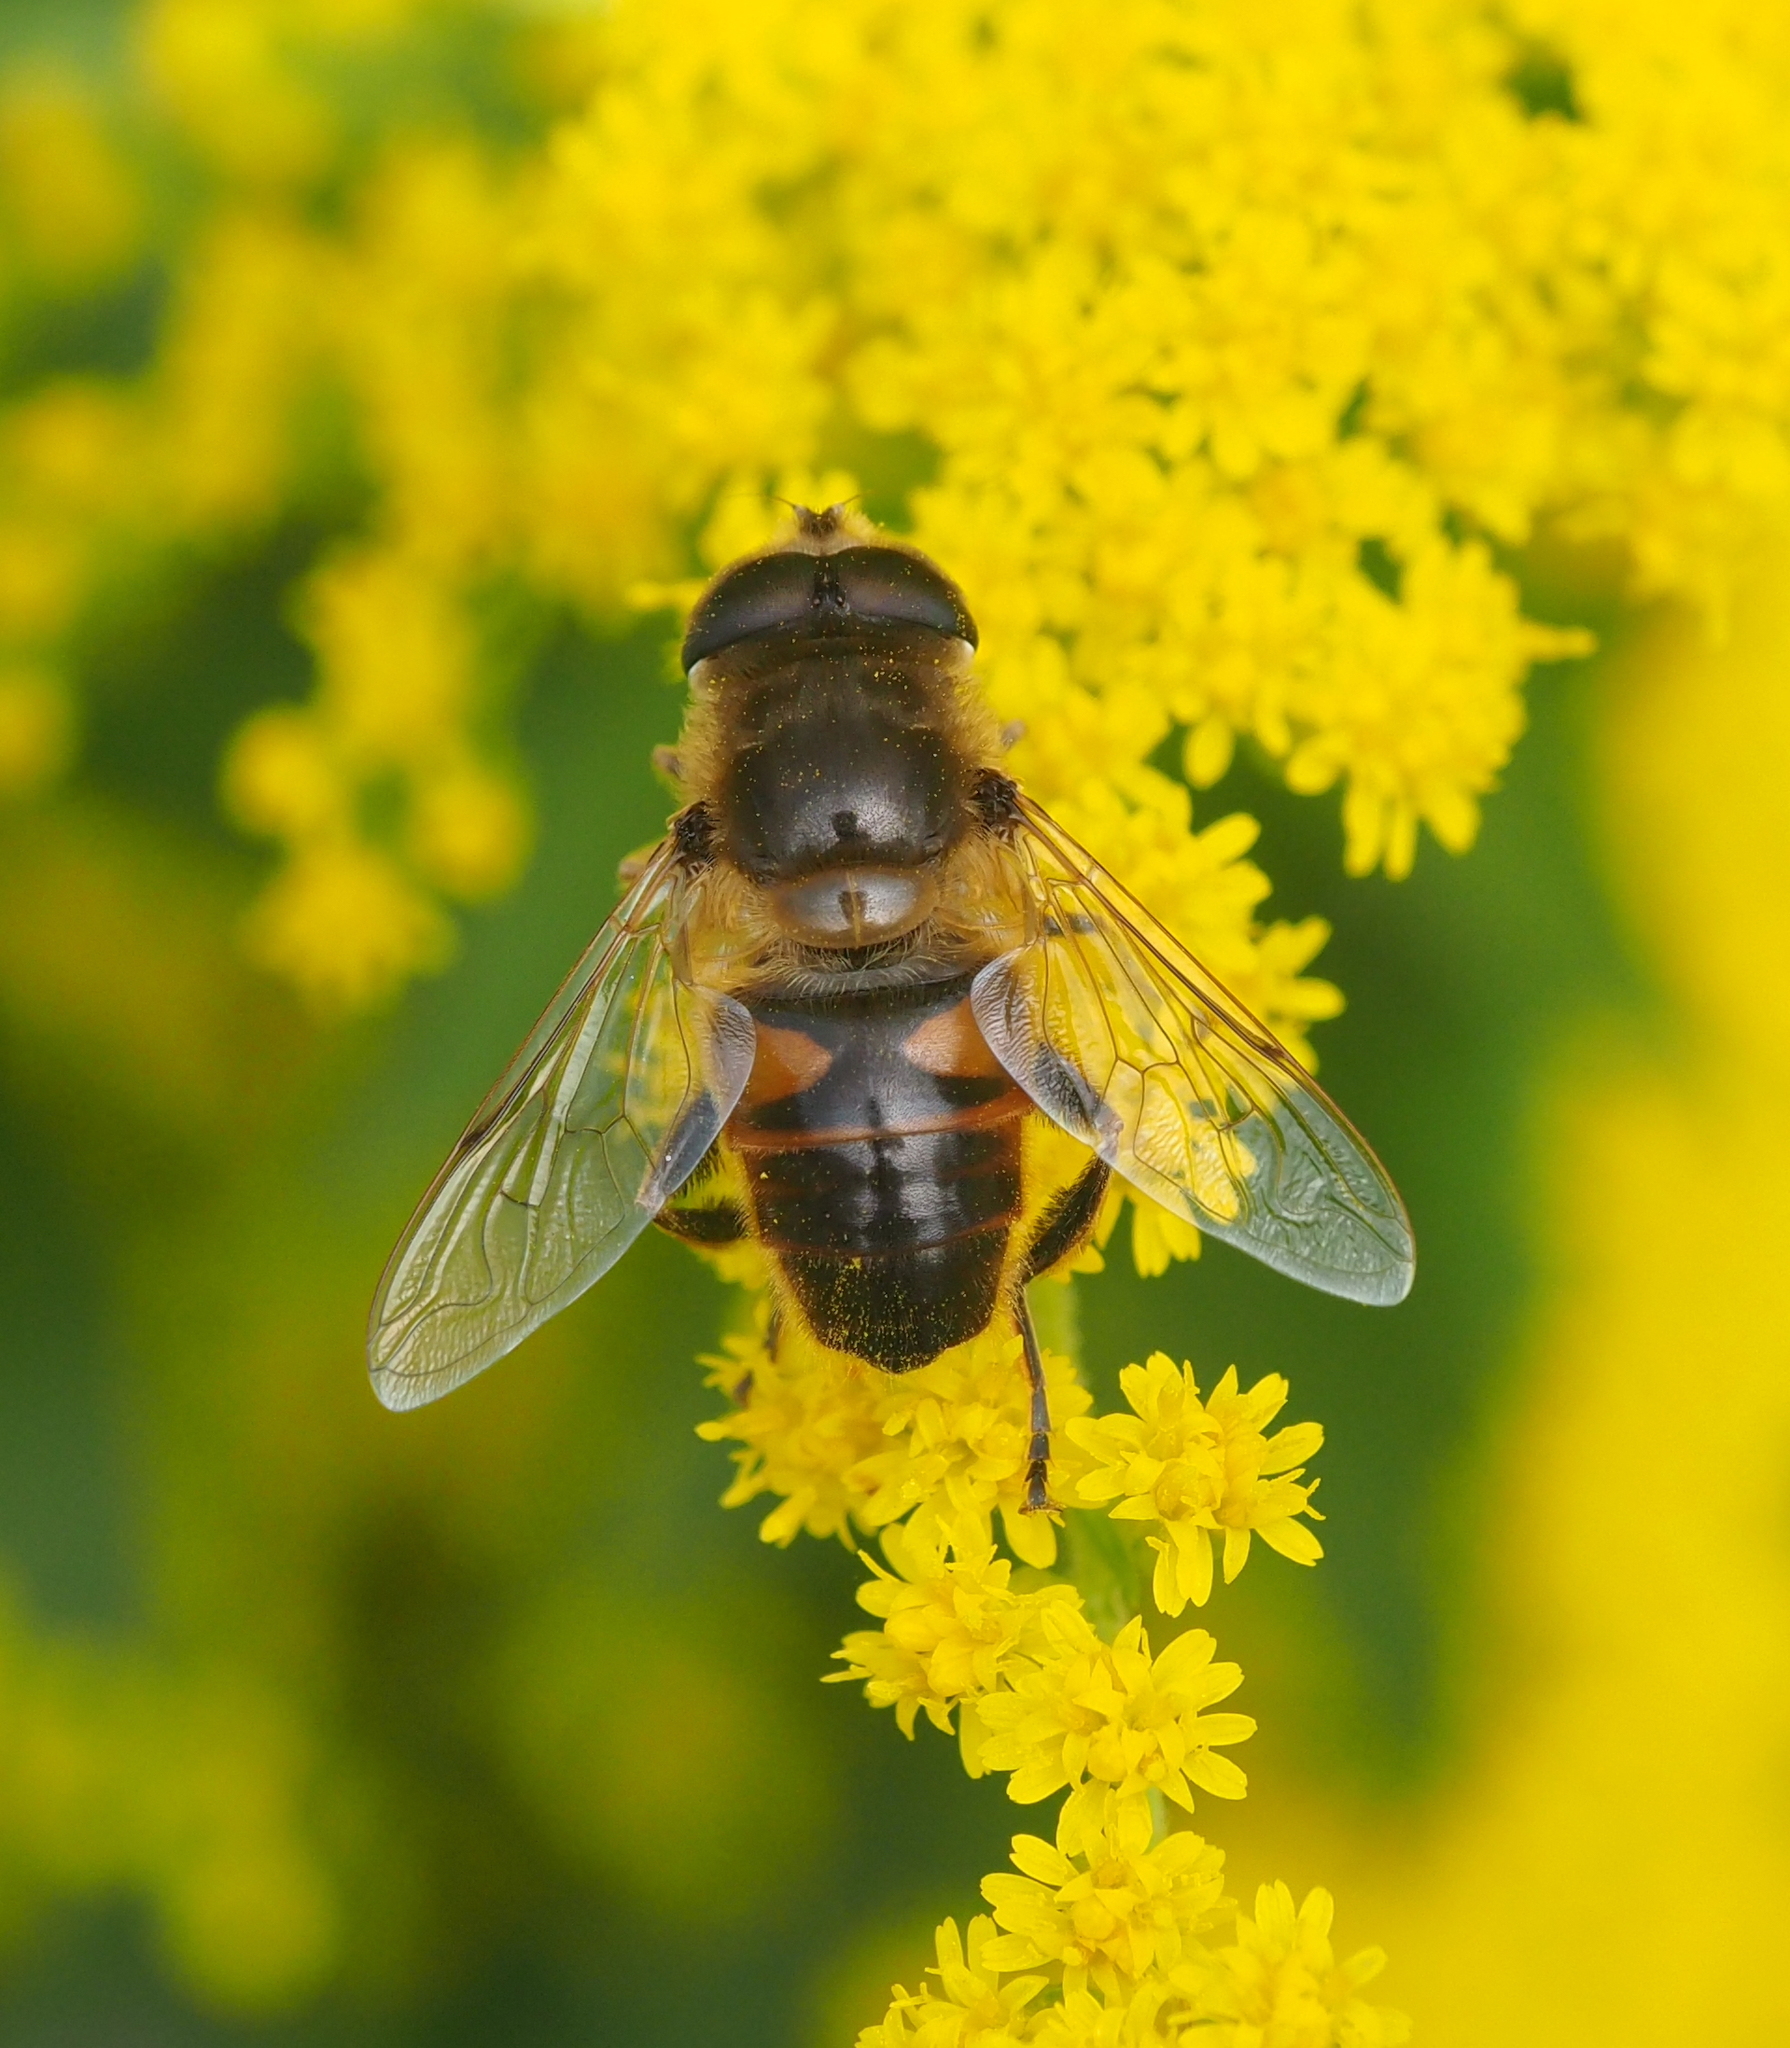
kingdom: Animalia
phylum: Arthropoda
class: Insecta
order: Diptera
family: Syrphidae
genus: Eristalis
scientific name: Eristalis tenax
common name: Drone fly
